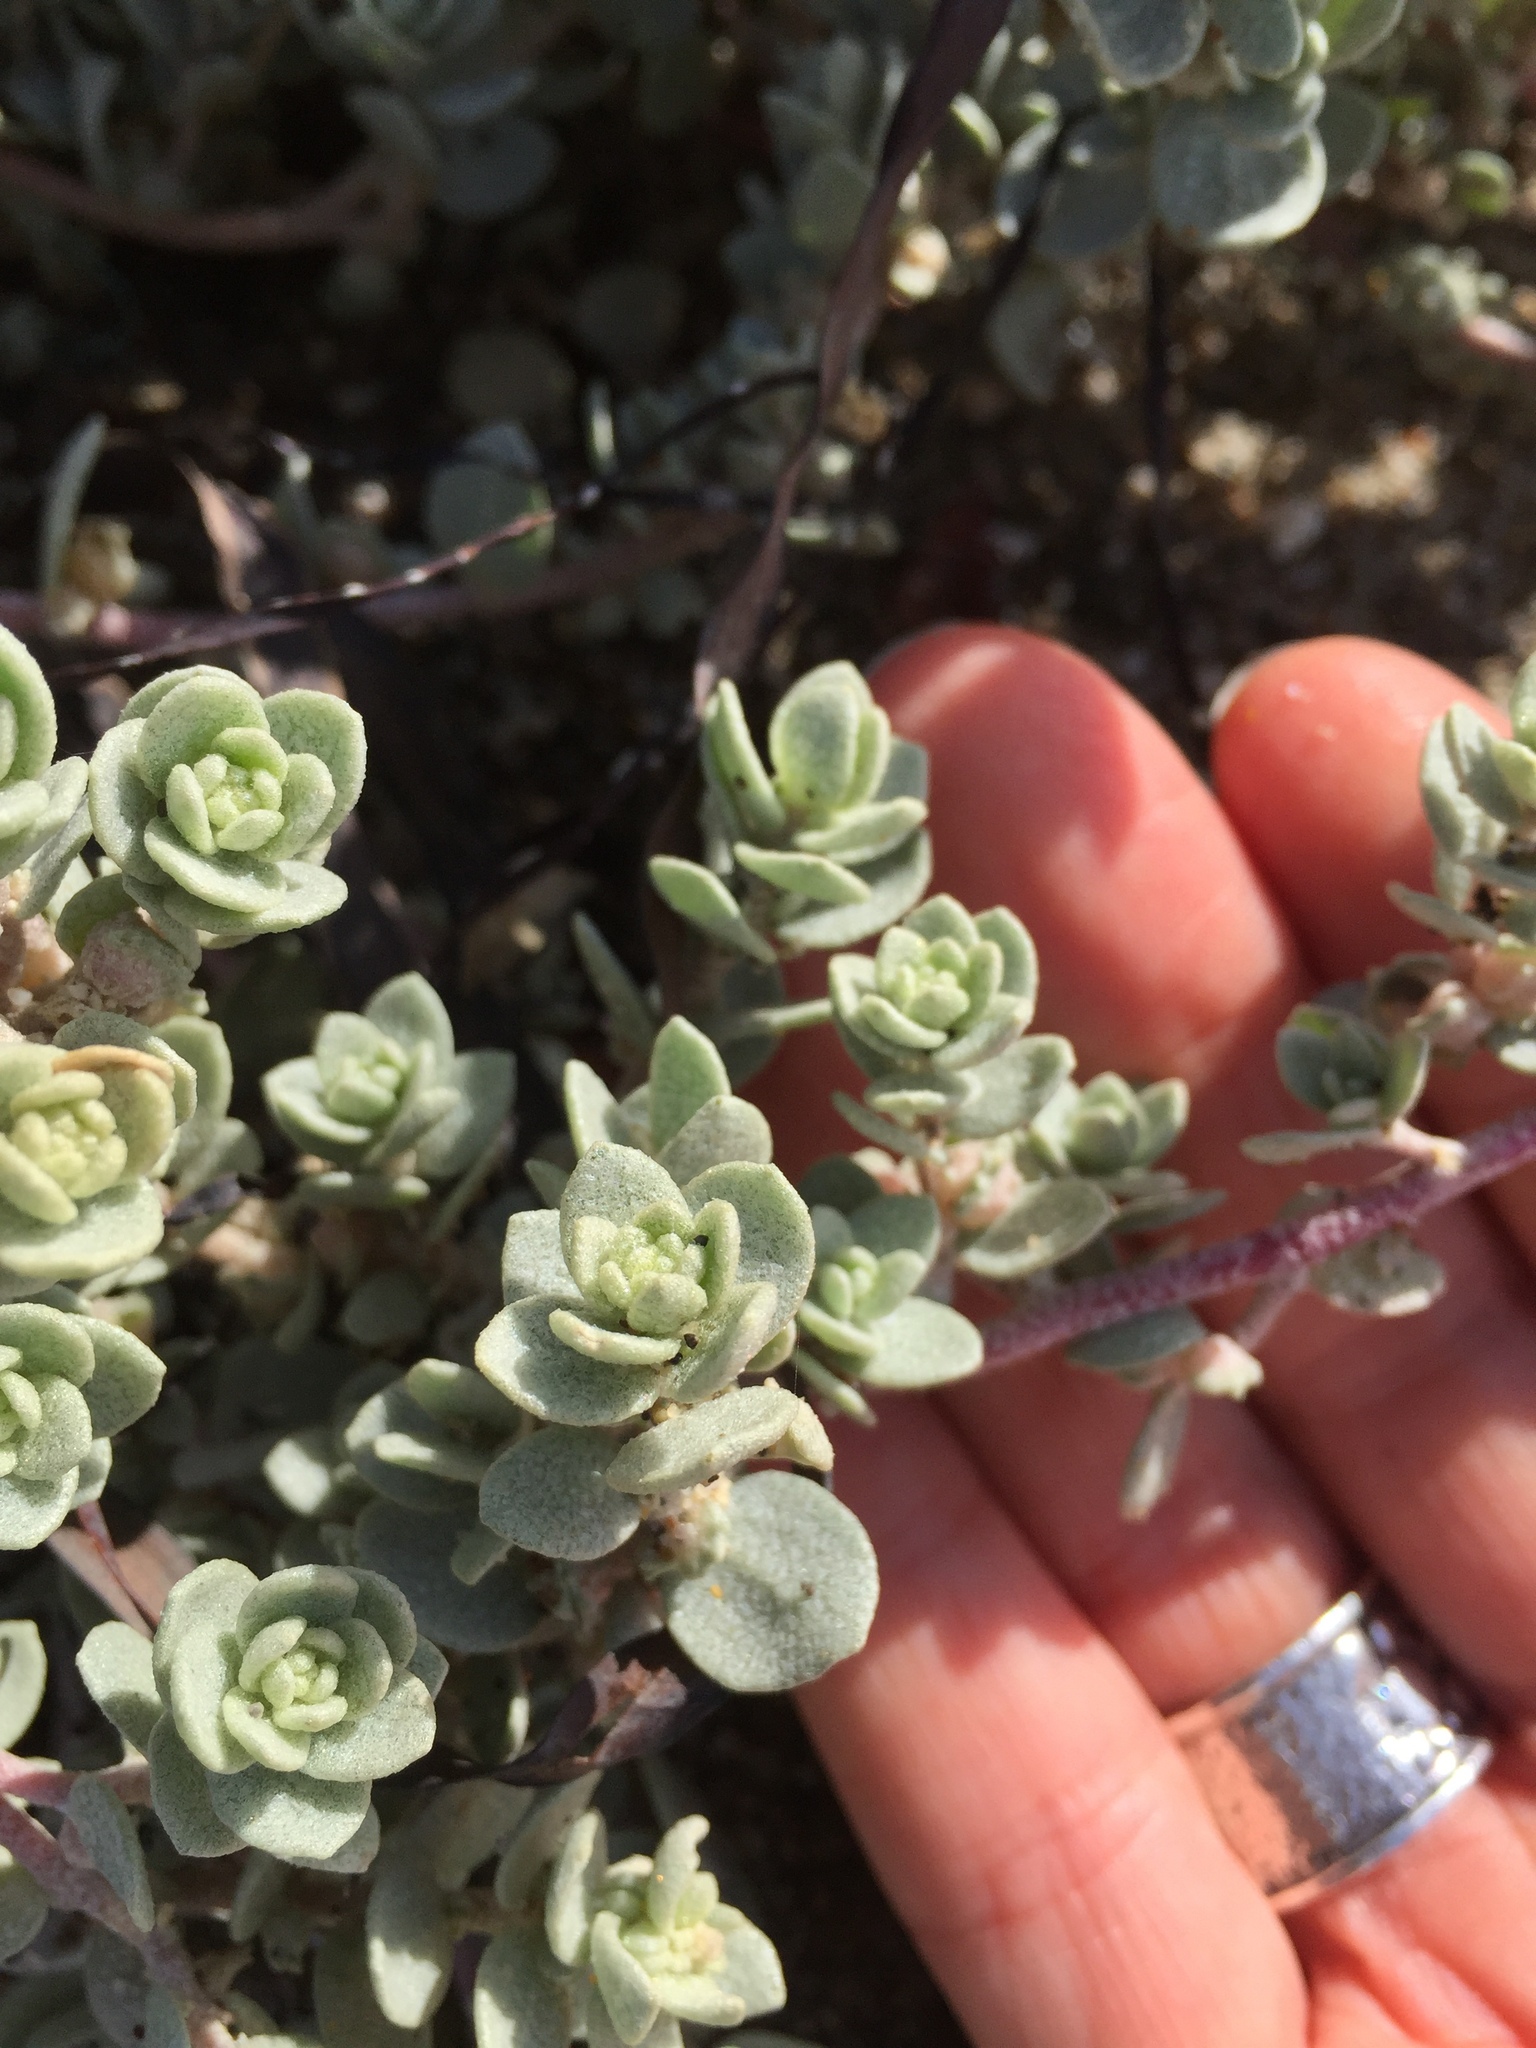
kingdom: Plantae
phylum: Tracheophyta
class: Magnoliopsida
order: Caryophyllales
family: Amaranthaceae
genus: Atriplex
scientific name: Atriplex leucophylla
